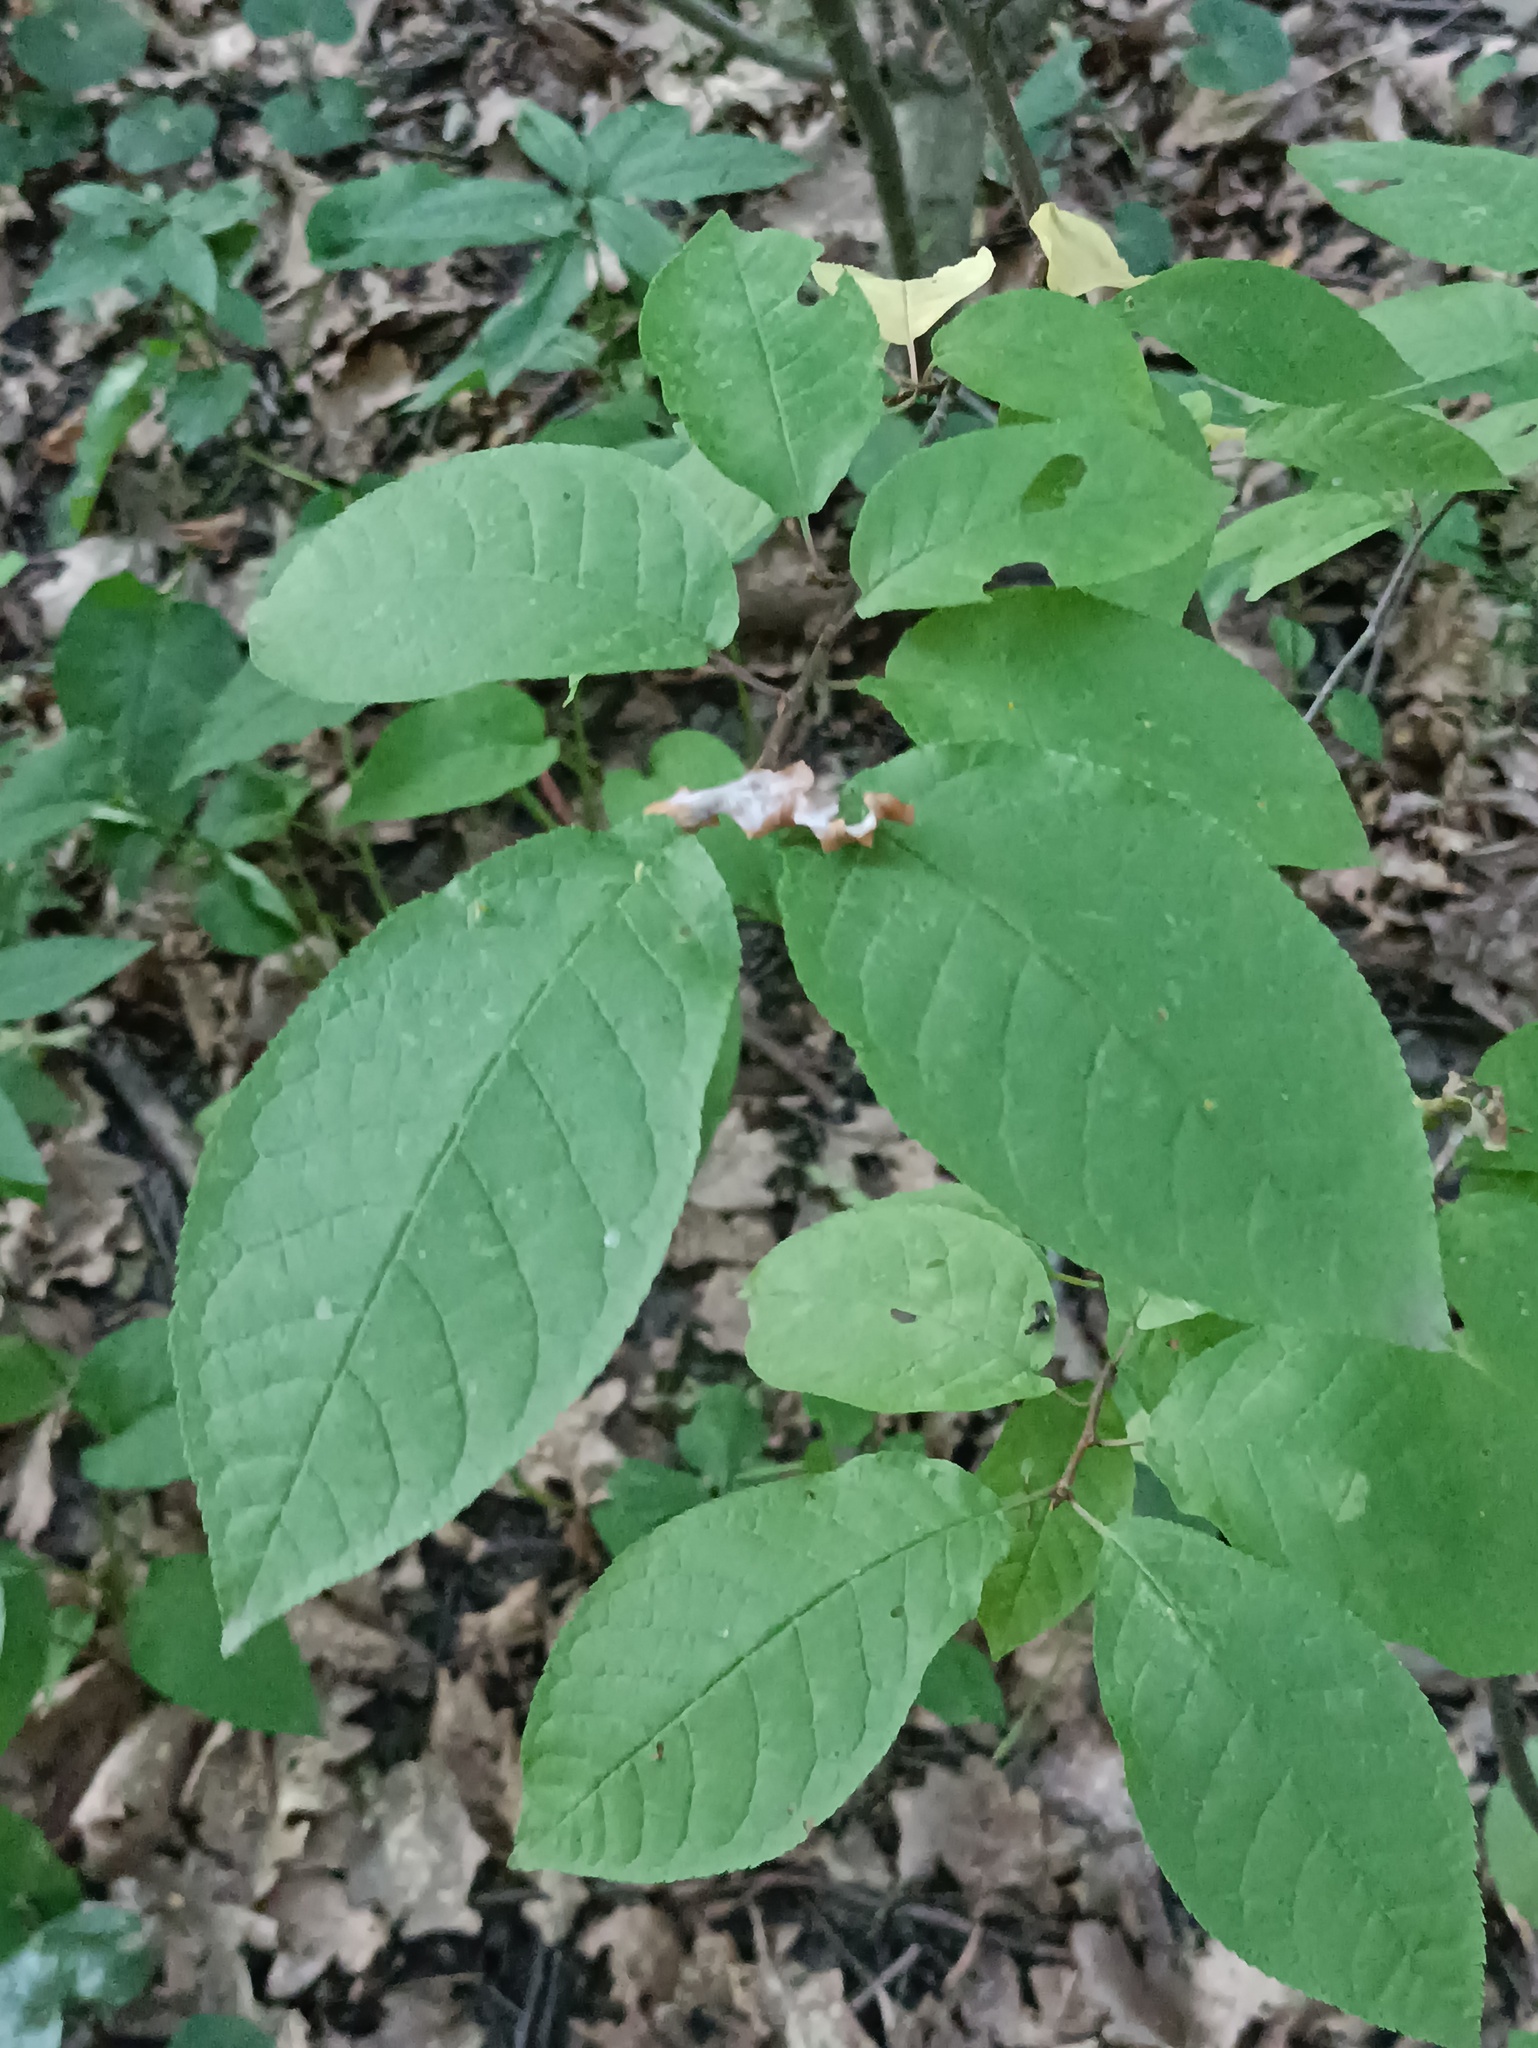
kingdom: Plantae
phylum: Tracheophyta
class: Magnoliopsida
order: Rosales
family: Rosaceae
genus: Prunus
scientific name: Prunus padus
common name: Bird cherry
